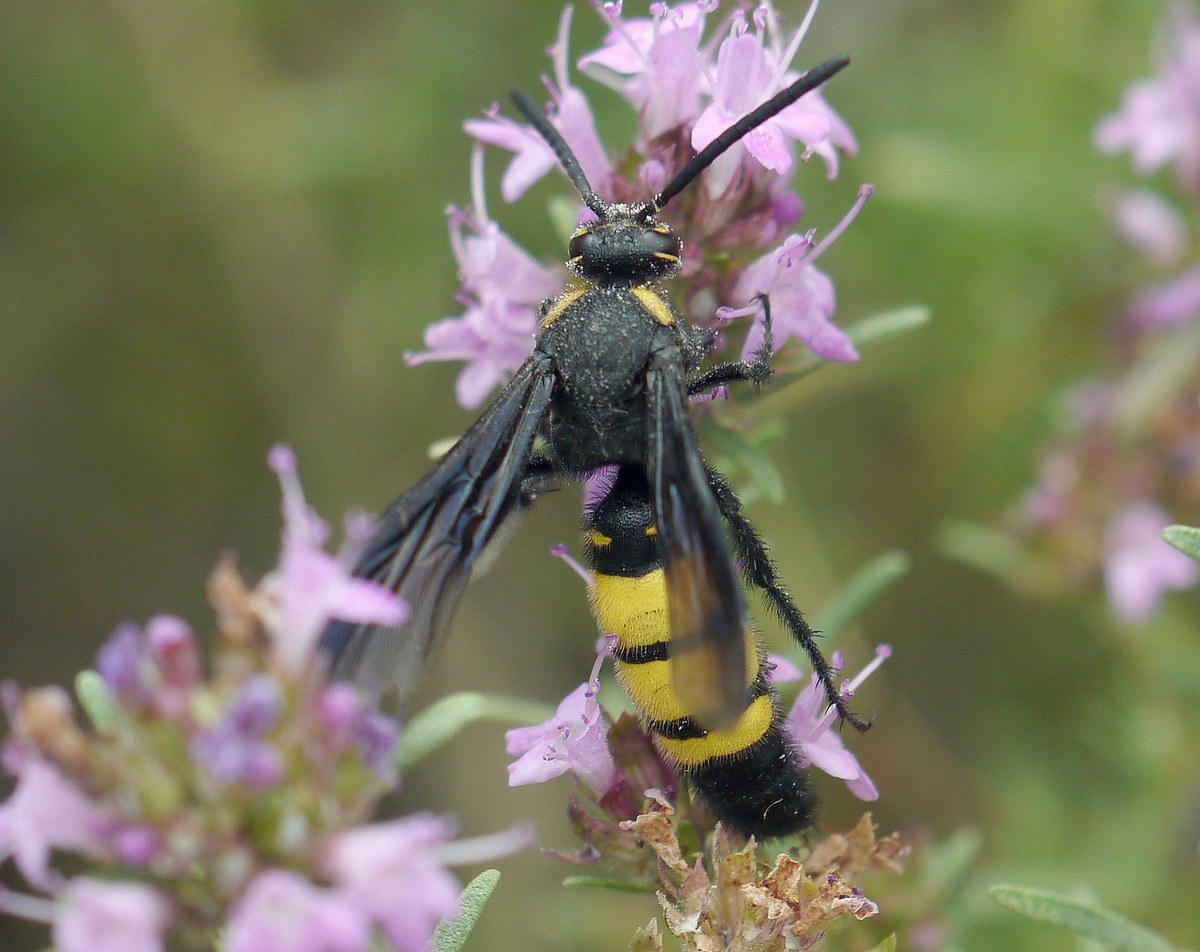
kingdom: Animalia
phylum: Arthropoda
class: Insecta
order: Hymenoptera
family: Vespidae
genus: Vespa
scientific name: Vespa galbula
